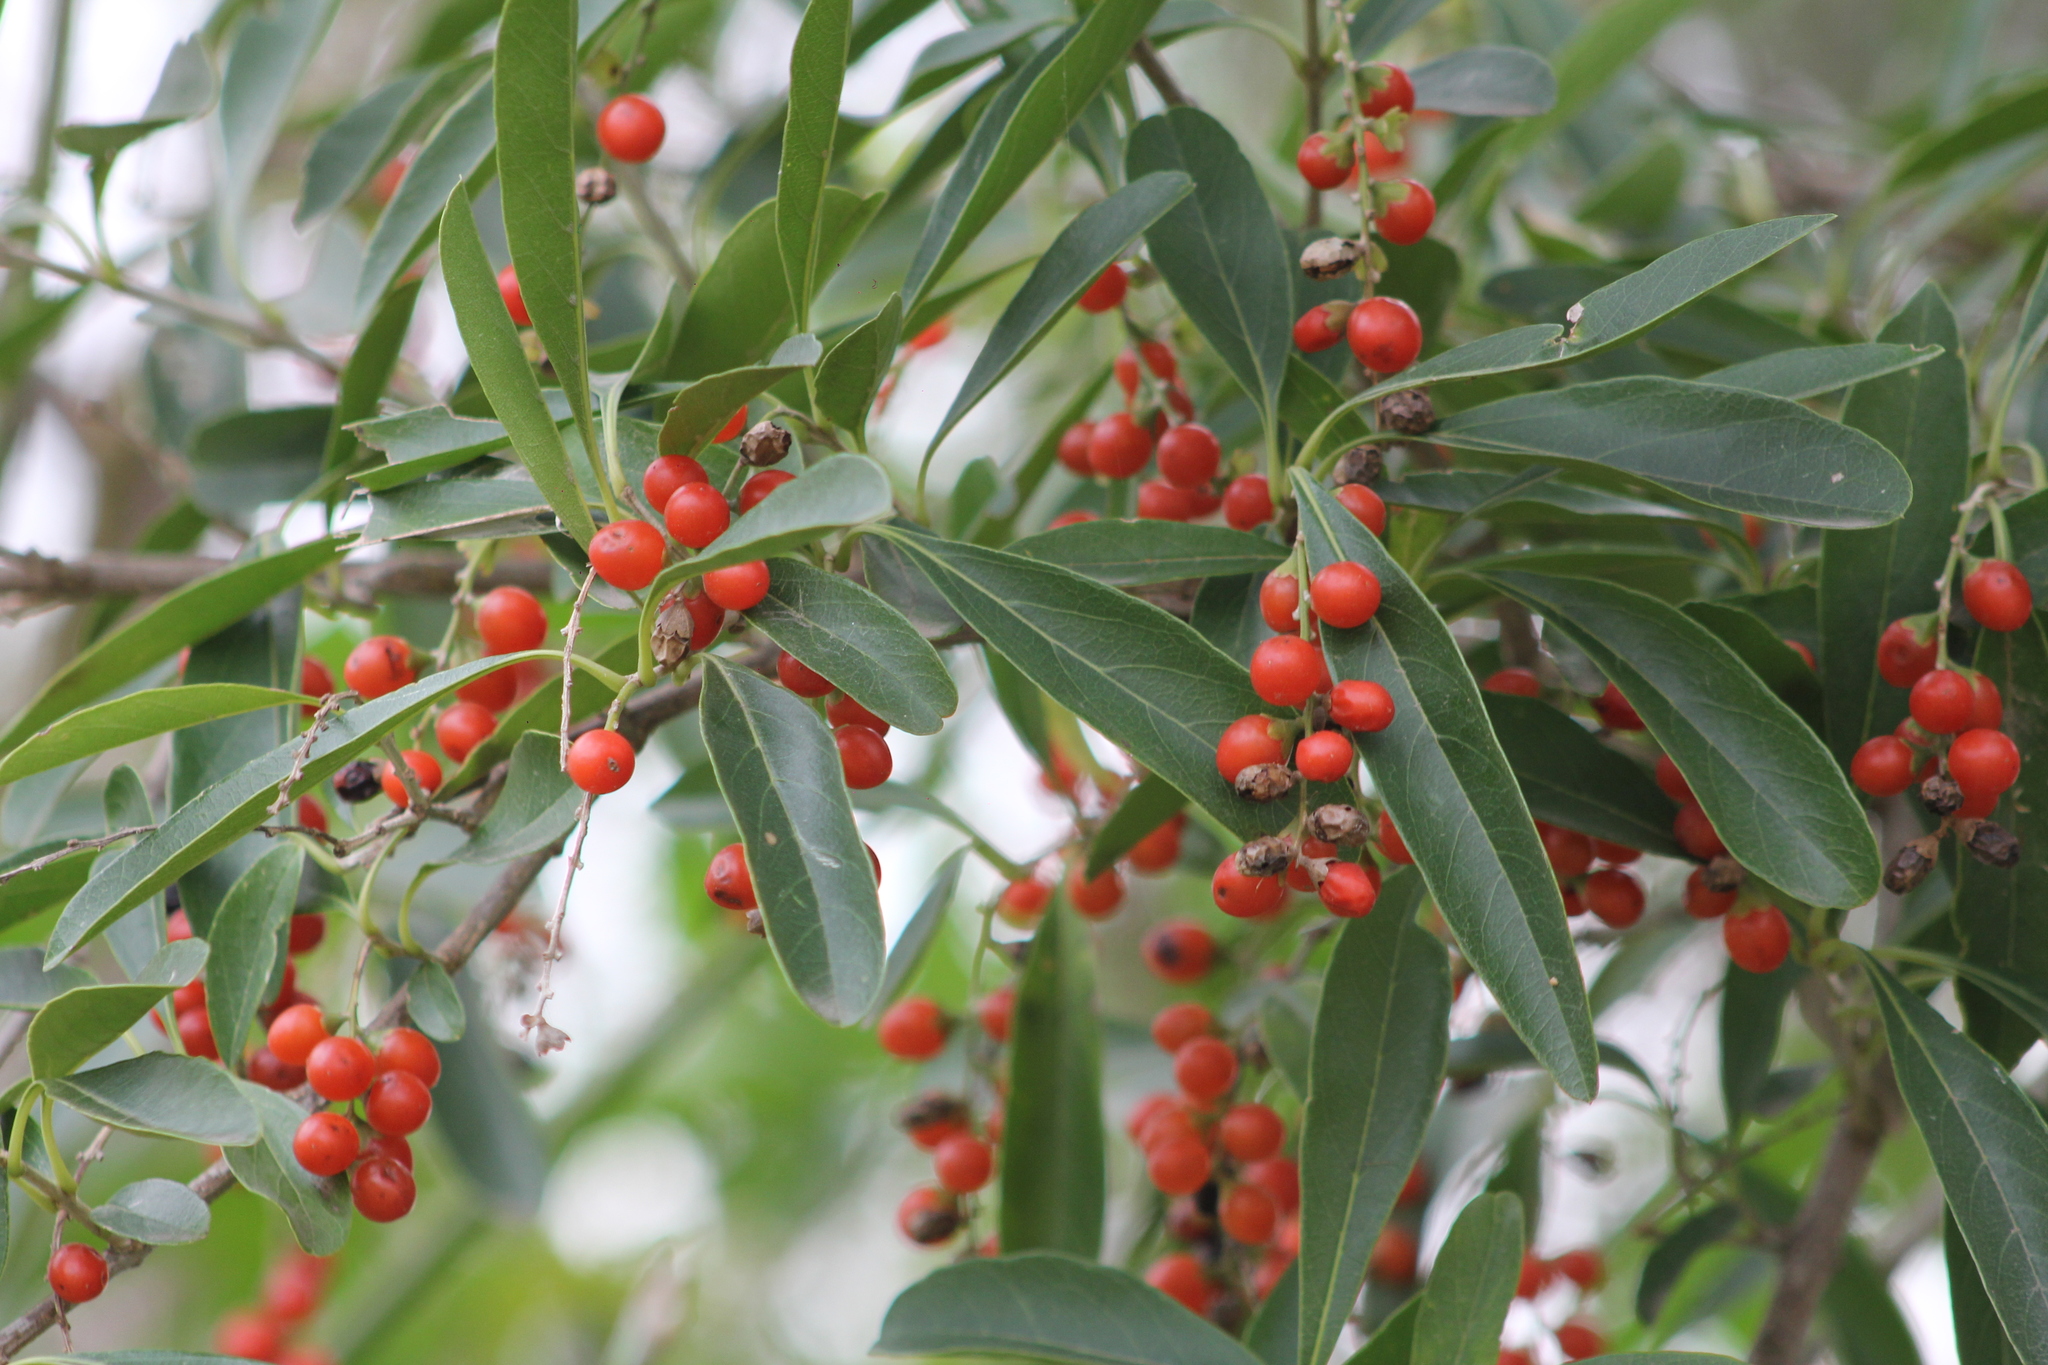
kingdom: Plantae
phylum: Tracheophyta
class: Magnoliopsida
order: Lamiales
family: Verbenaceae
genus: Citharexylum
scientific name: Citharexylum montevidense
